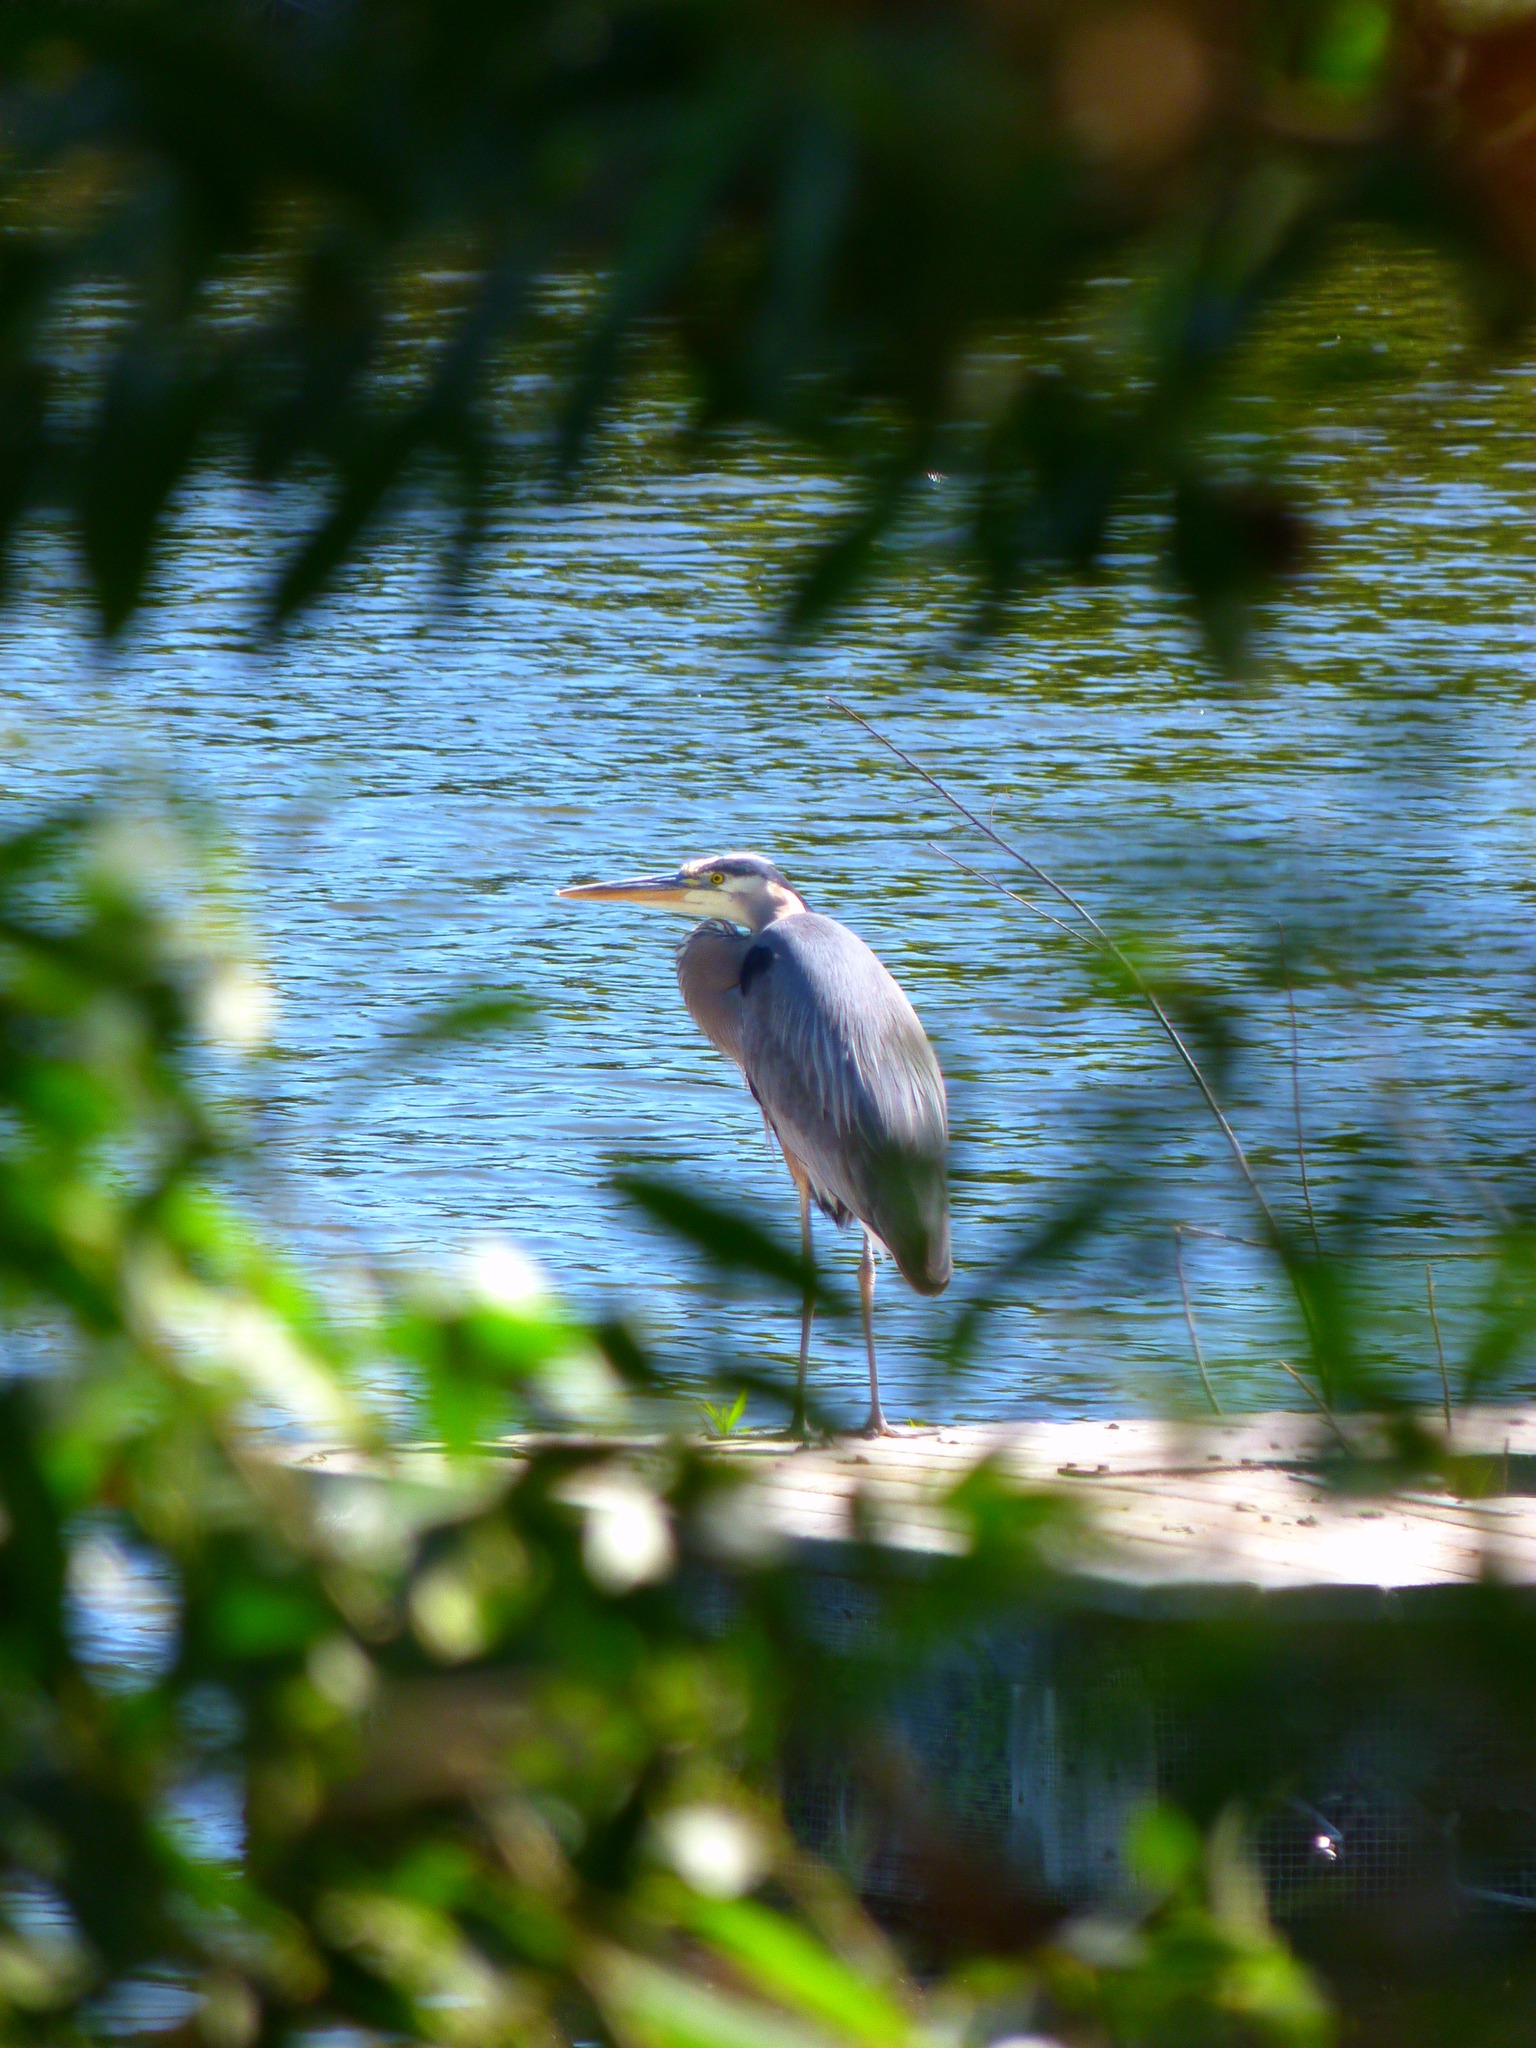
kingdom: Animalia
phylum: Chordata
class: Aves
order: Pelecaniformes
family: Ardeidae
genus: Ardea
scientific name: Ardea herodias
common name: Great blue heron
